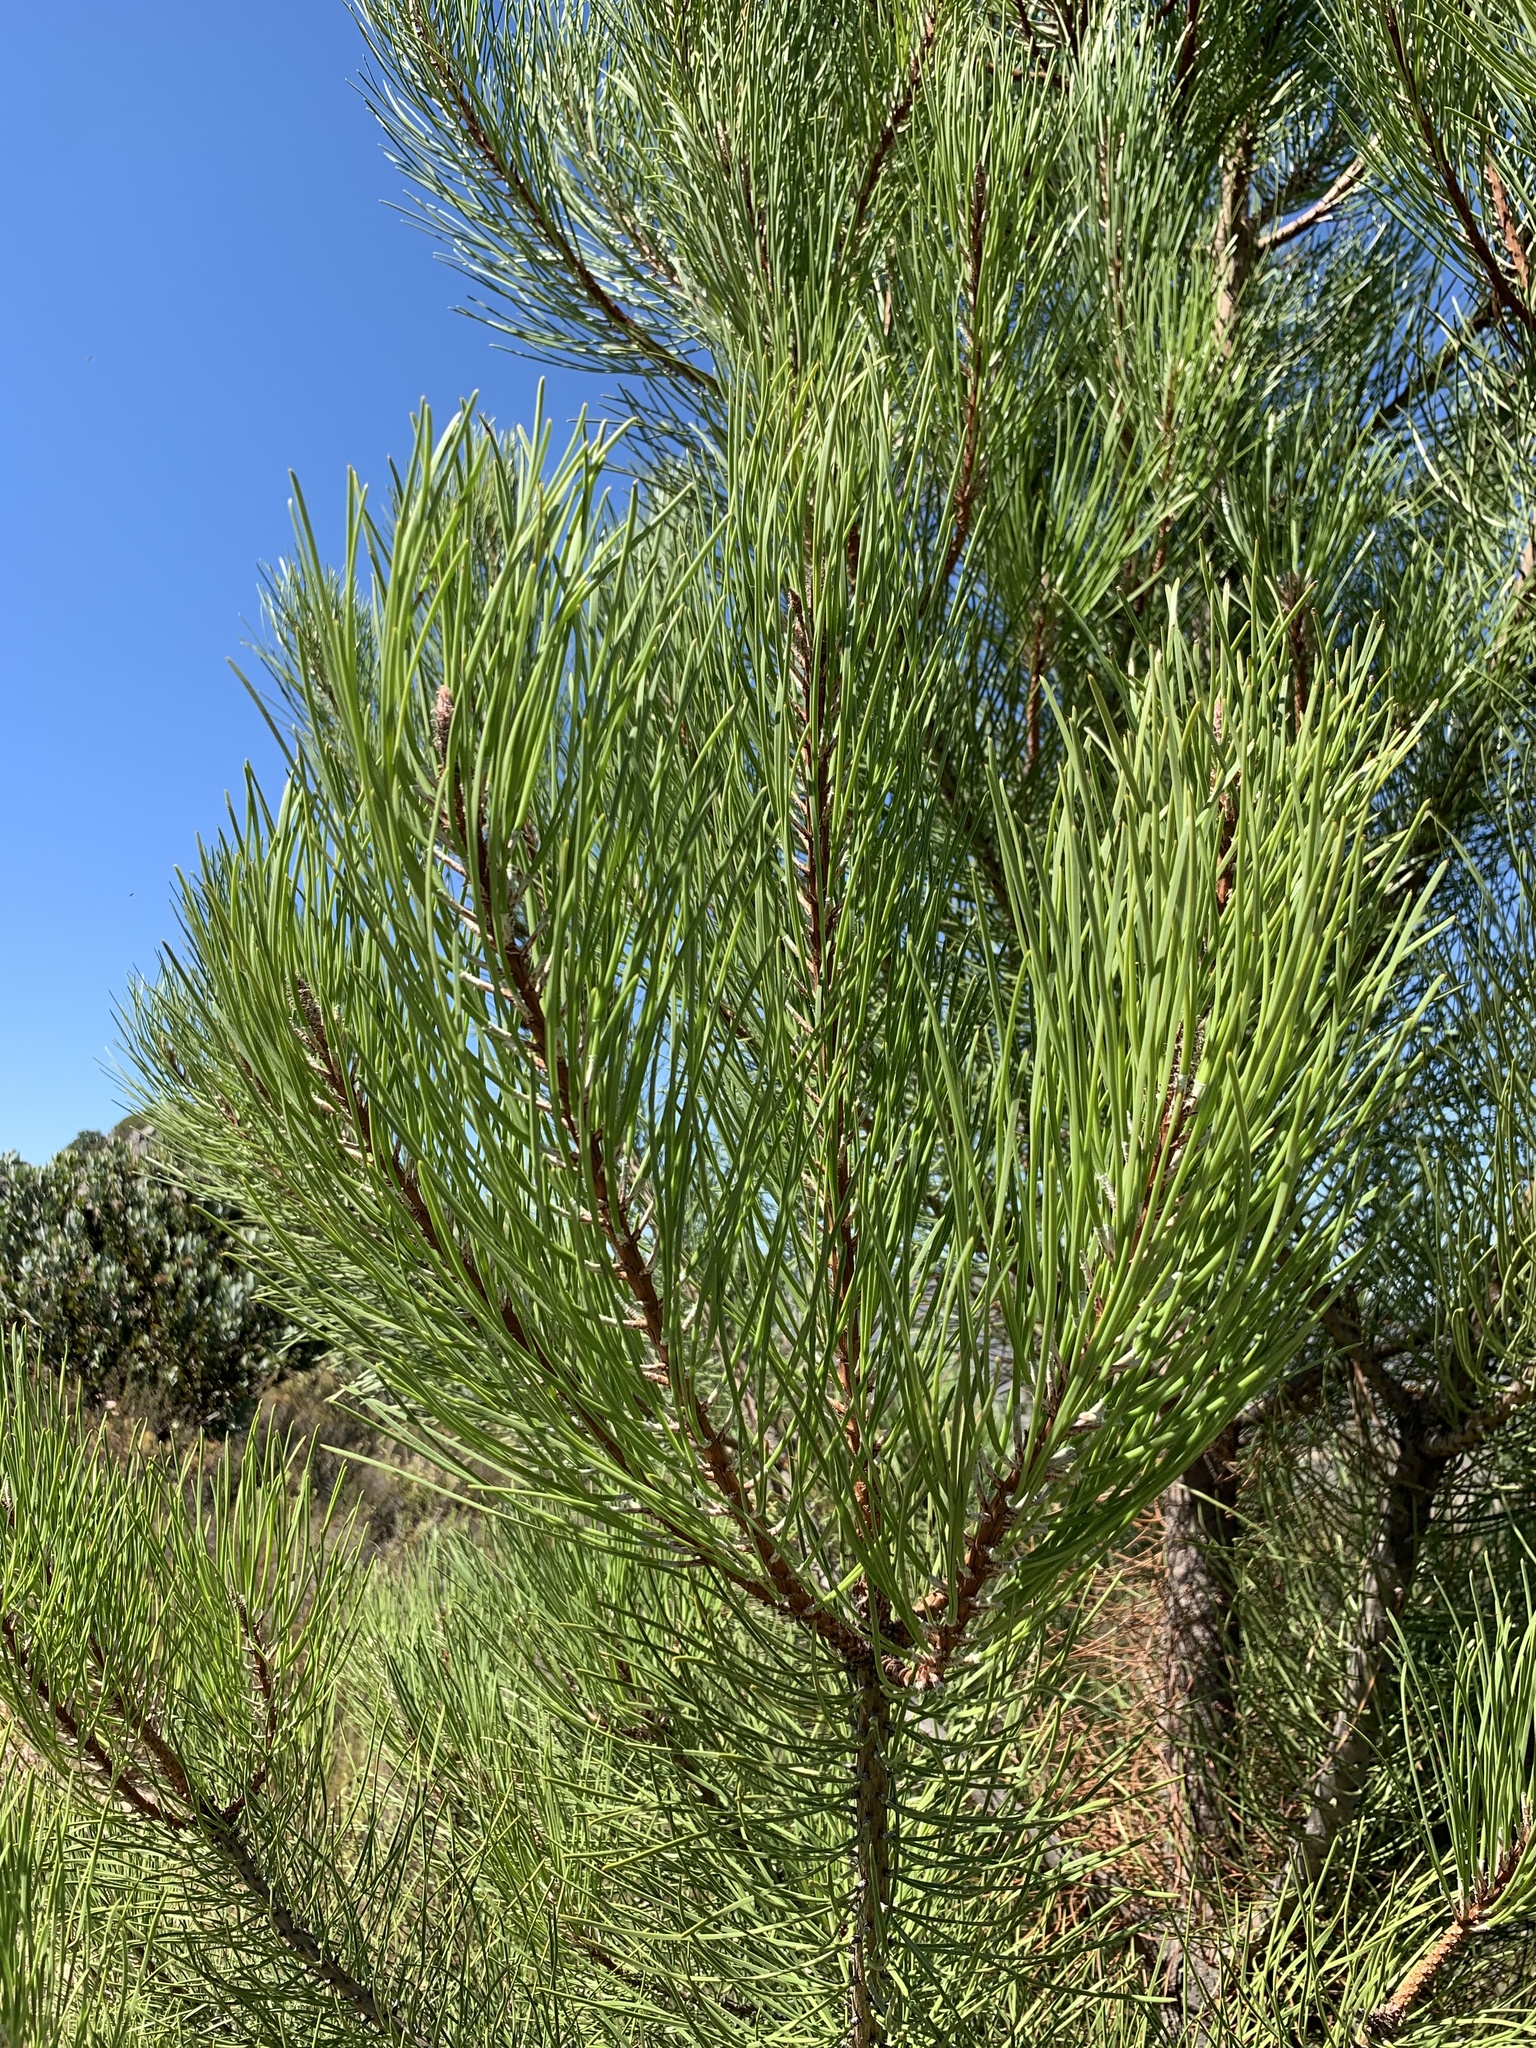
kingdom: Plantae
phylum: Tracheophyta
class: Pinopsida
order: Pinales
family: Pinaceae
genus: Pinus
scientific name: Pinus pinaster
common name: Maritime pine
